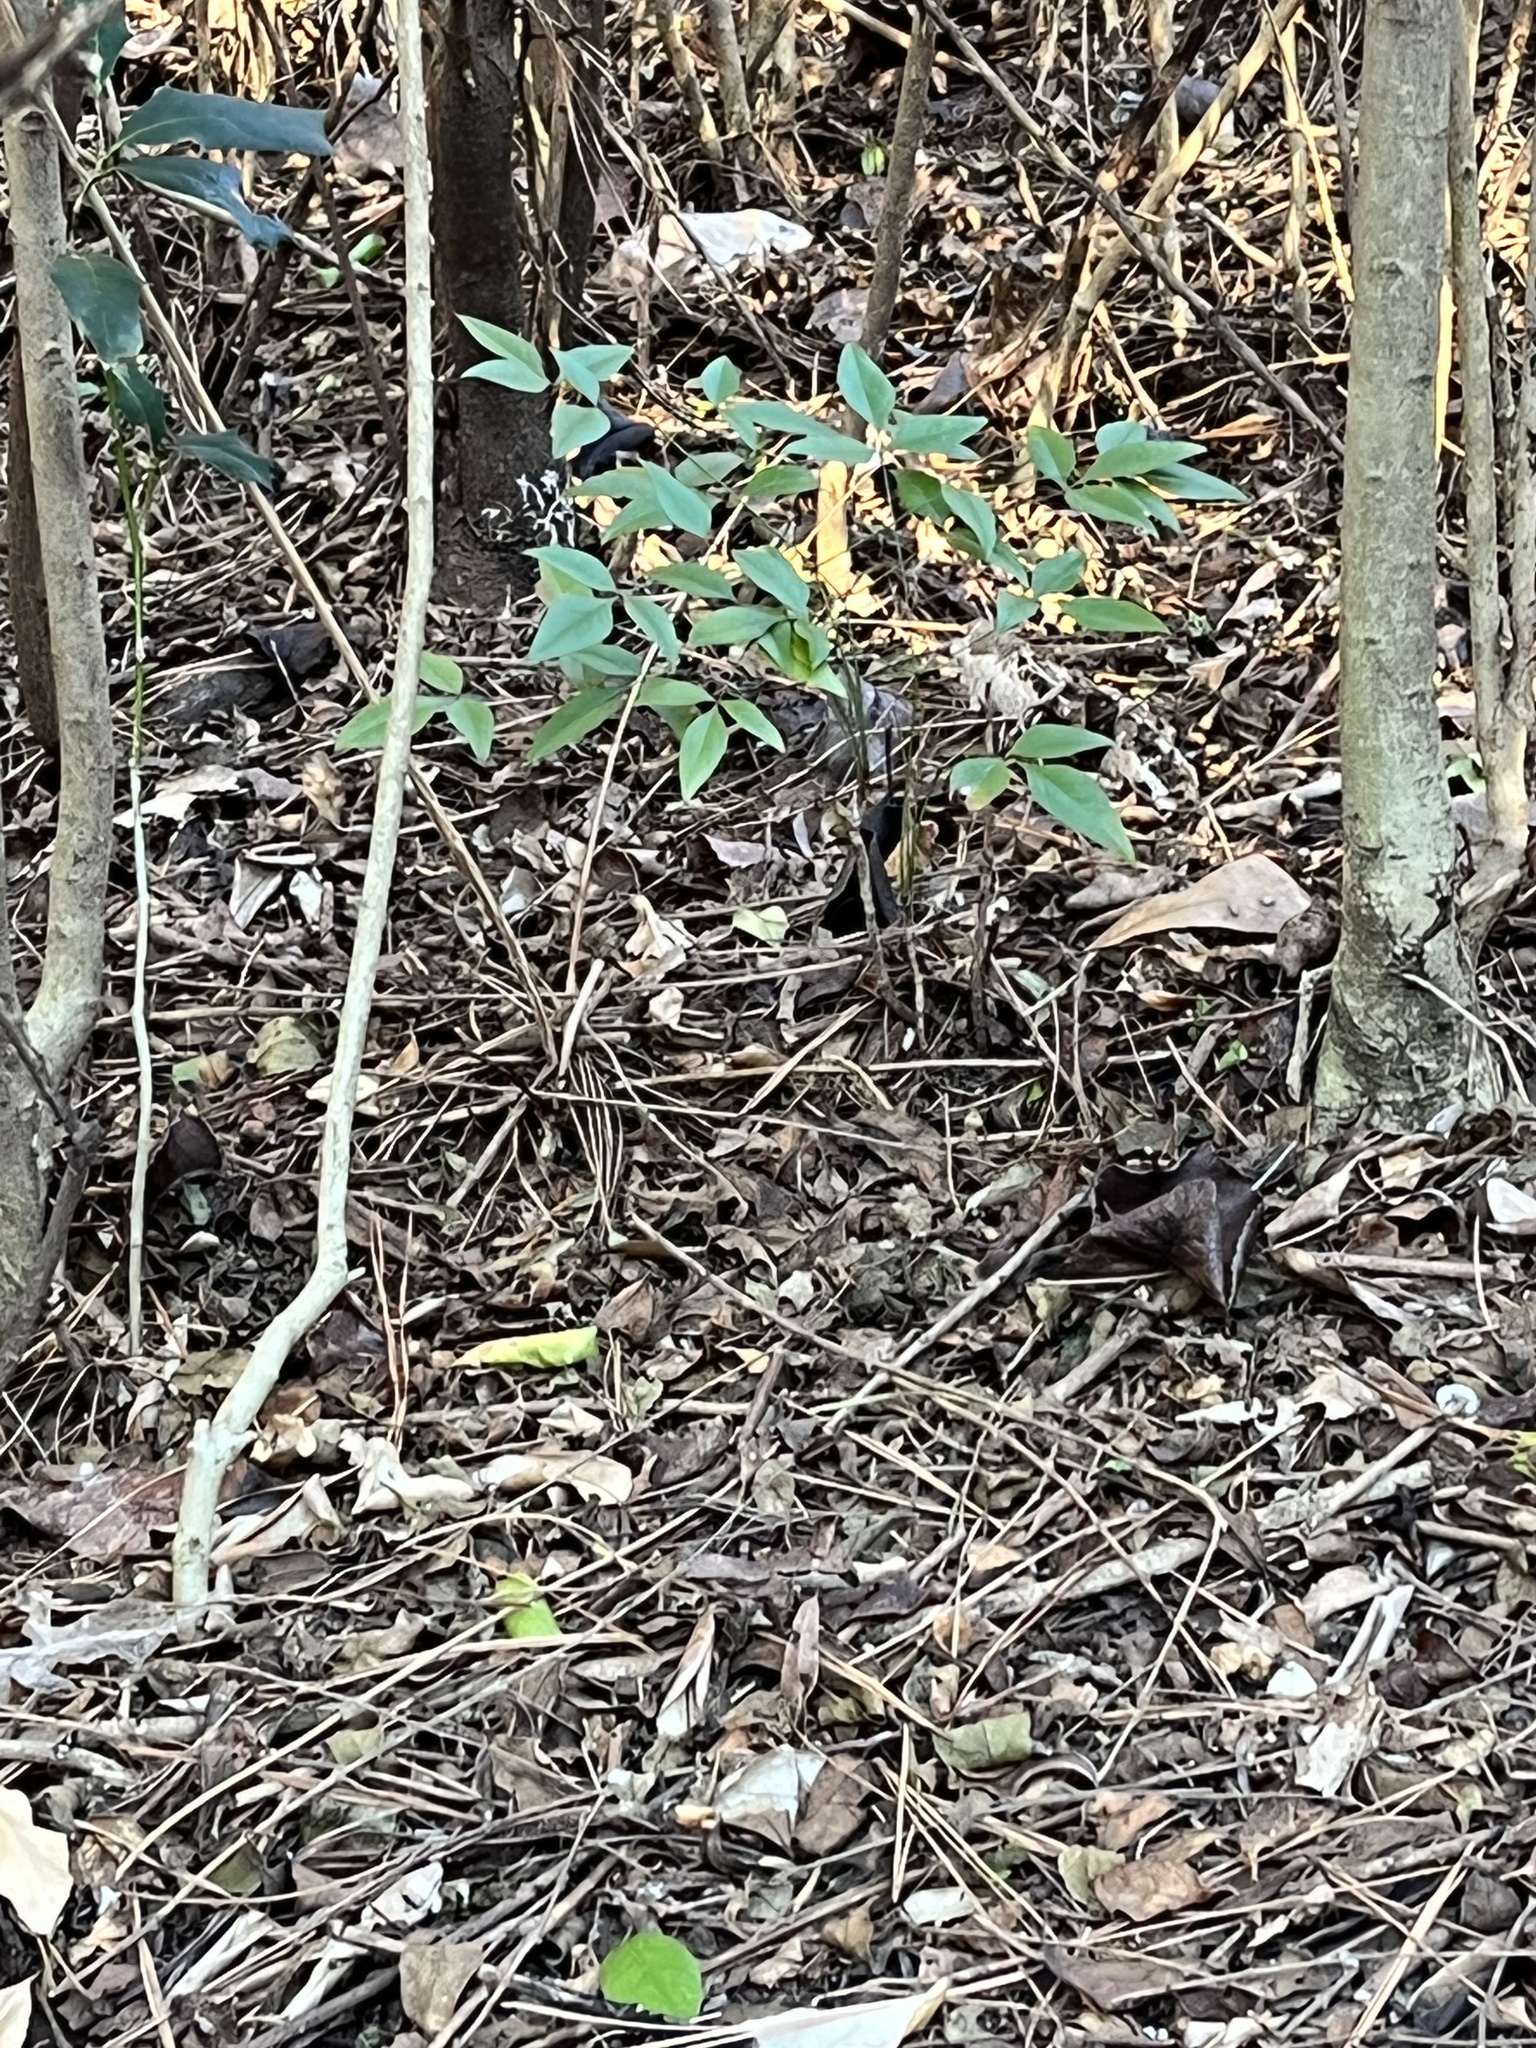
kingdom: Plantae
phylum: Tracheophyta
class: Magnoliopsida
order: Ranunculales
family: Berberidaceae
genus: Nandina
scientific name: Nandina domestica
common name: Sacred bamboo
